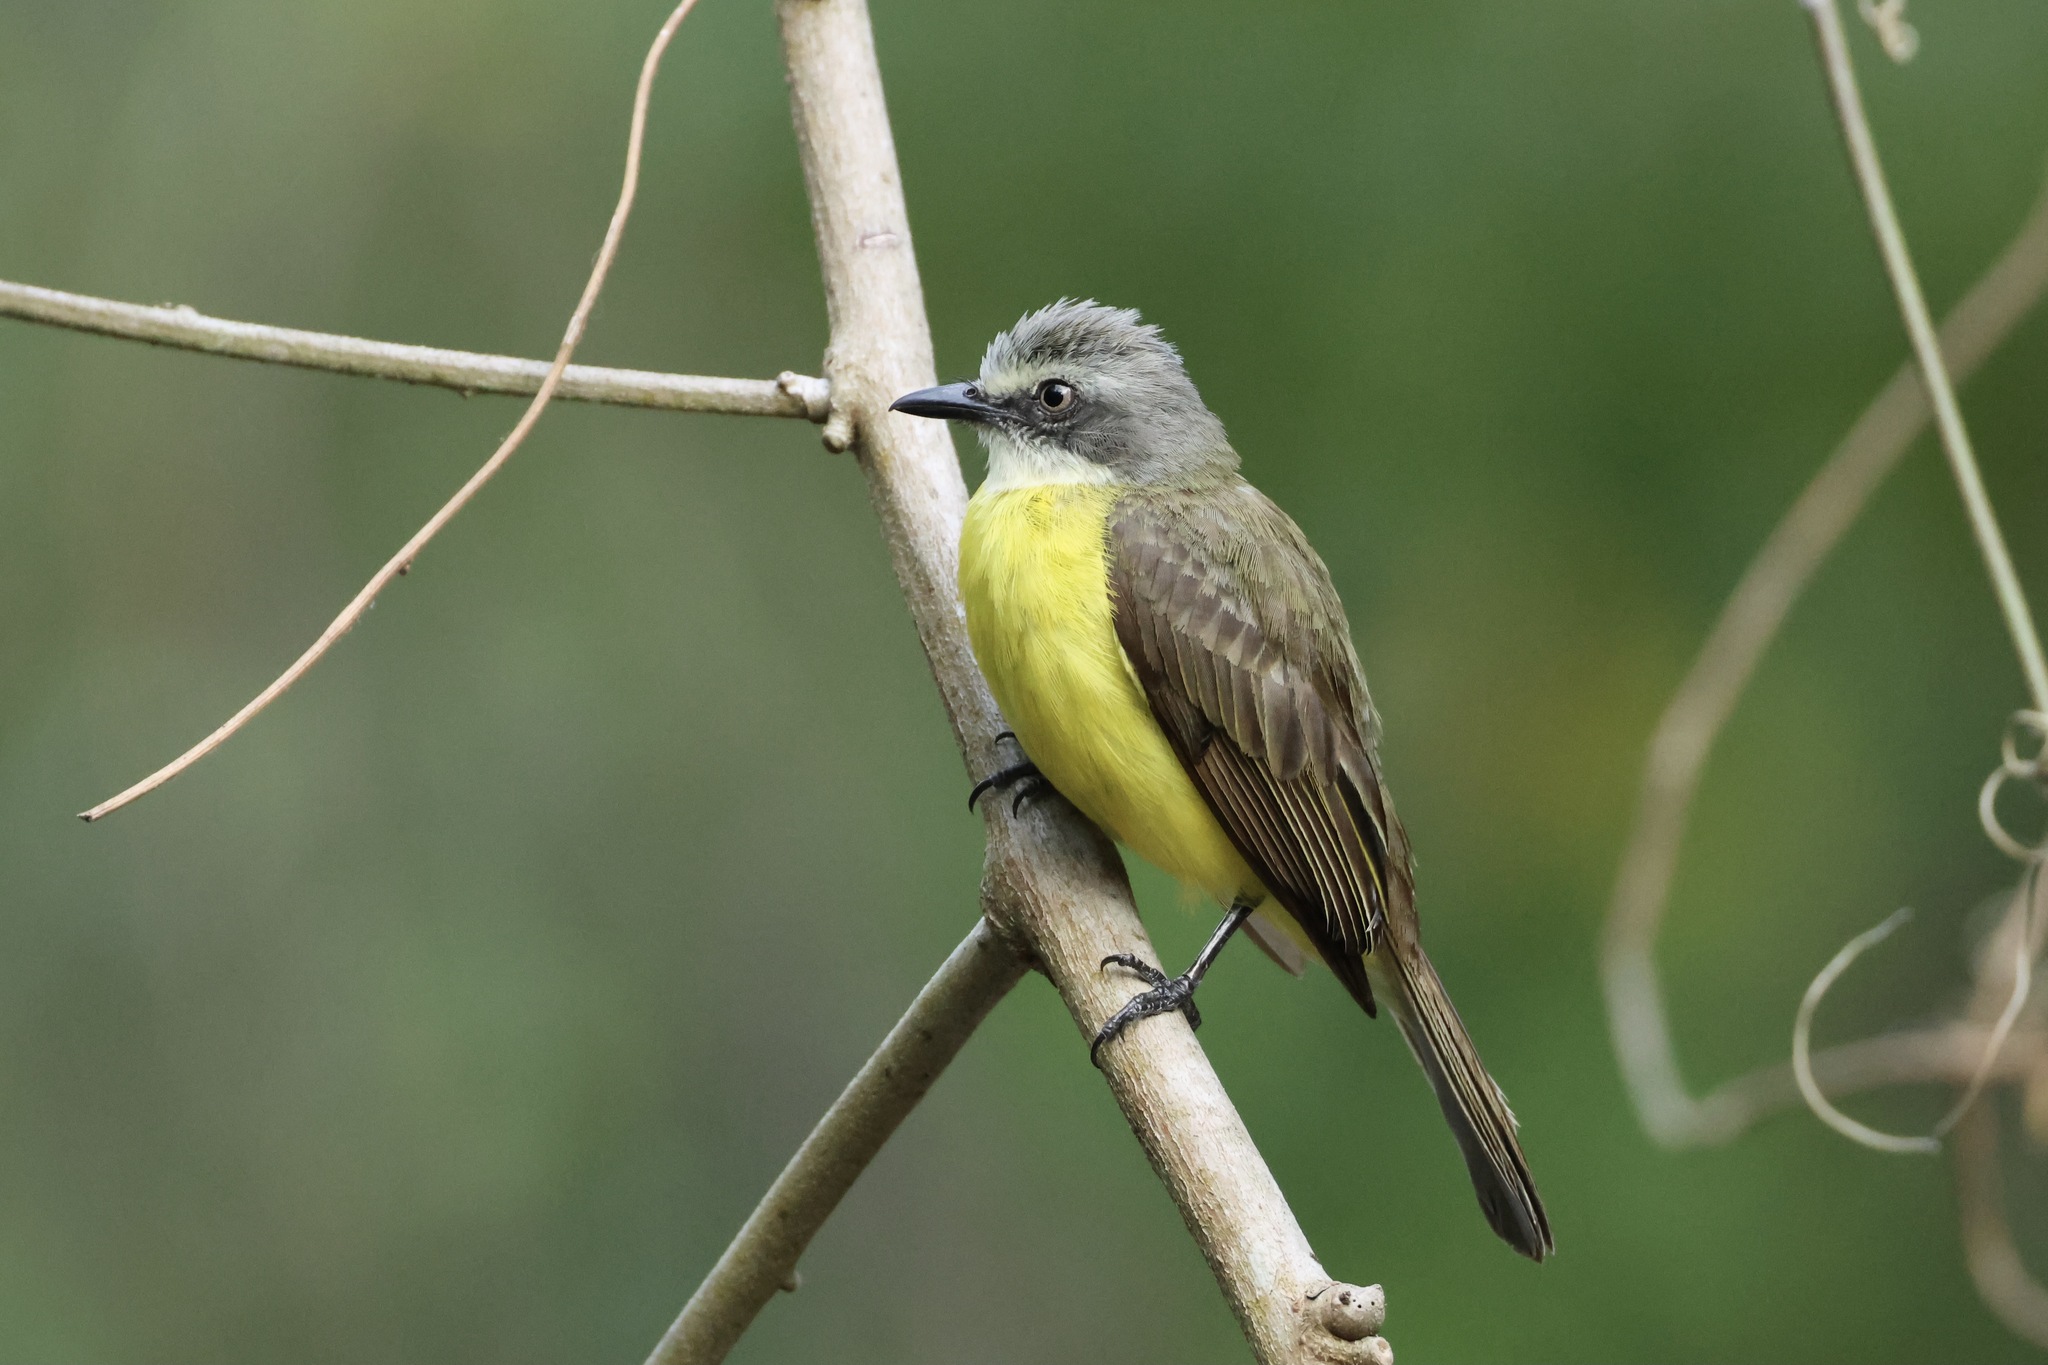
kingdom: Animalia
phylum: Chordata
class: Aves
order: Passeriformes
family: Tyrannidae
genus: Myiozetetes
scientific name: Myiozetetes granadensis
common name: Gray-capped flycatcher
